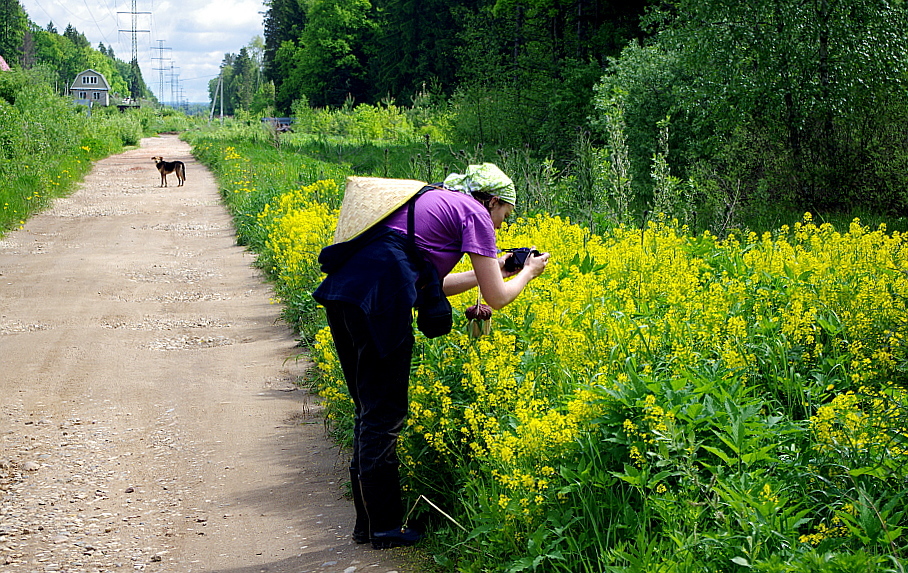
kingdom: Plantae
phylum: Tracheophyta
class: Magnoliopsida
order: Brassicales
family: Brassicaceae
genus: Barbarea
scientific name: Barbarea vulgaris
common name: Cressy-greens
